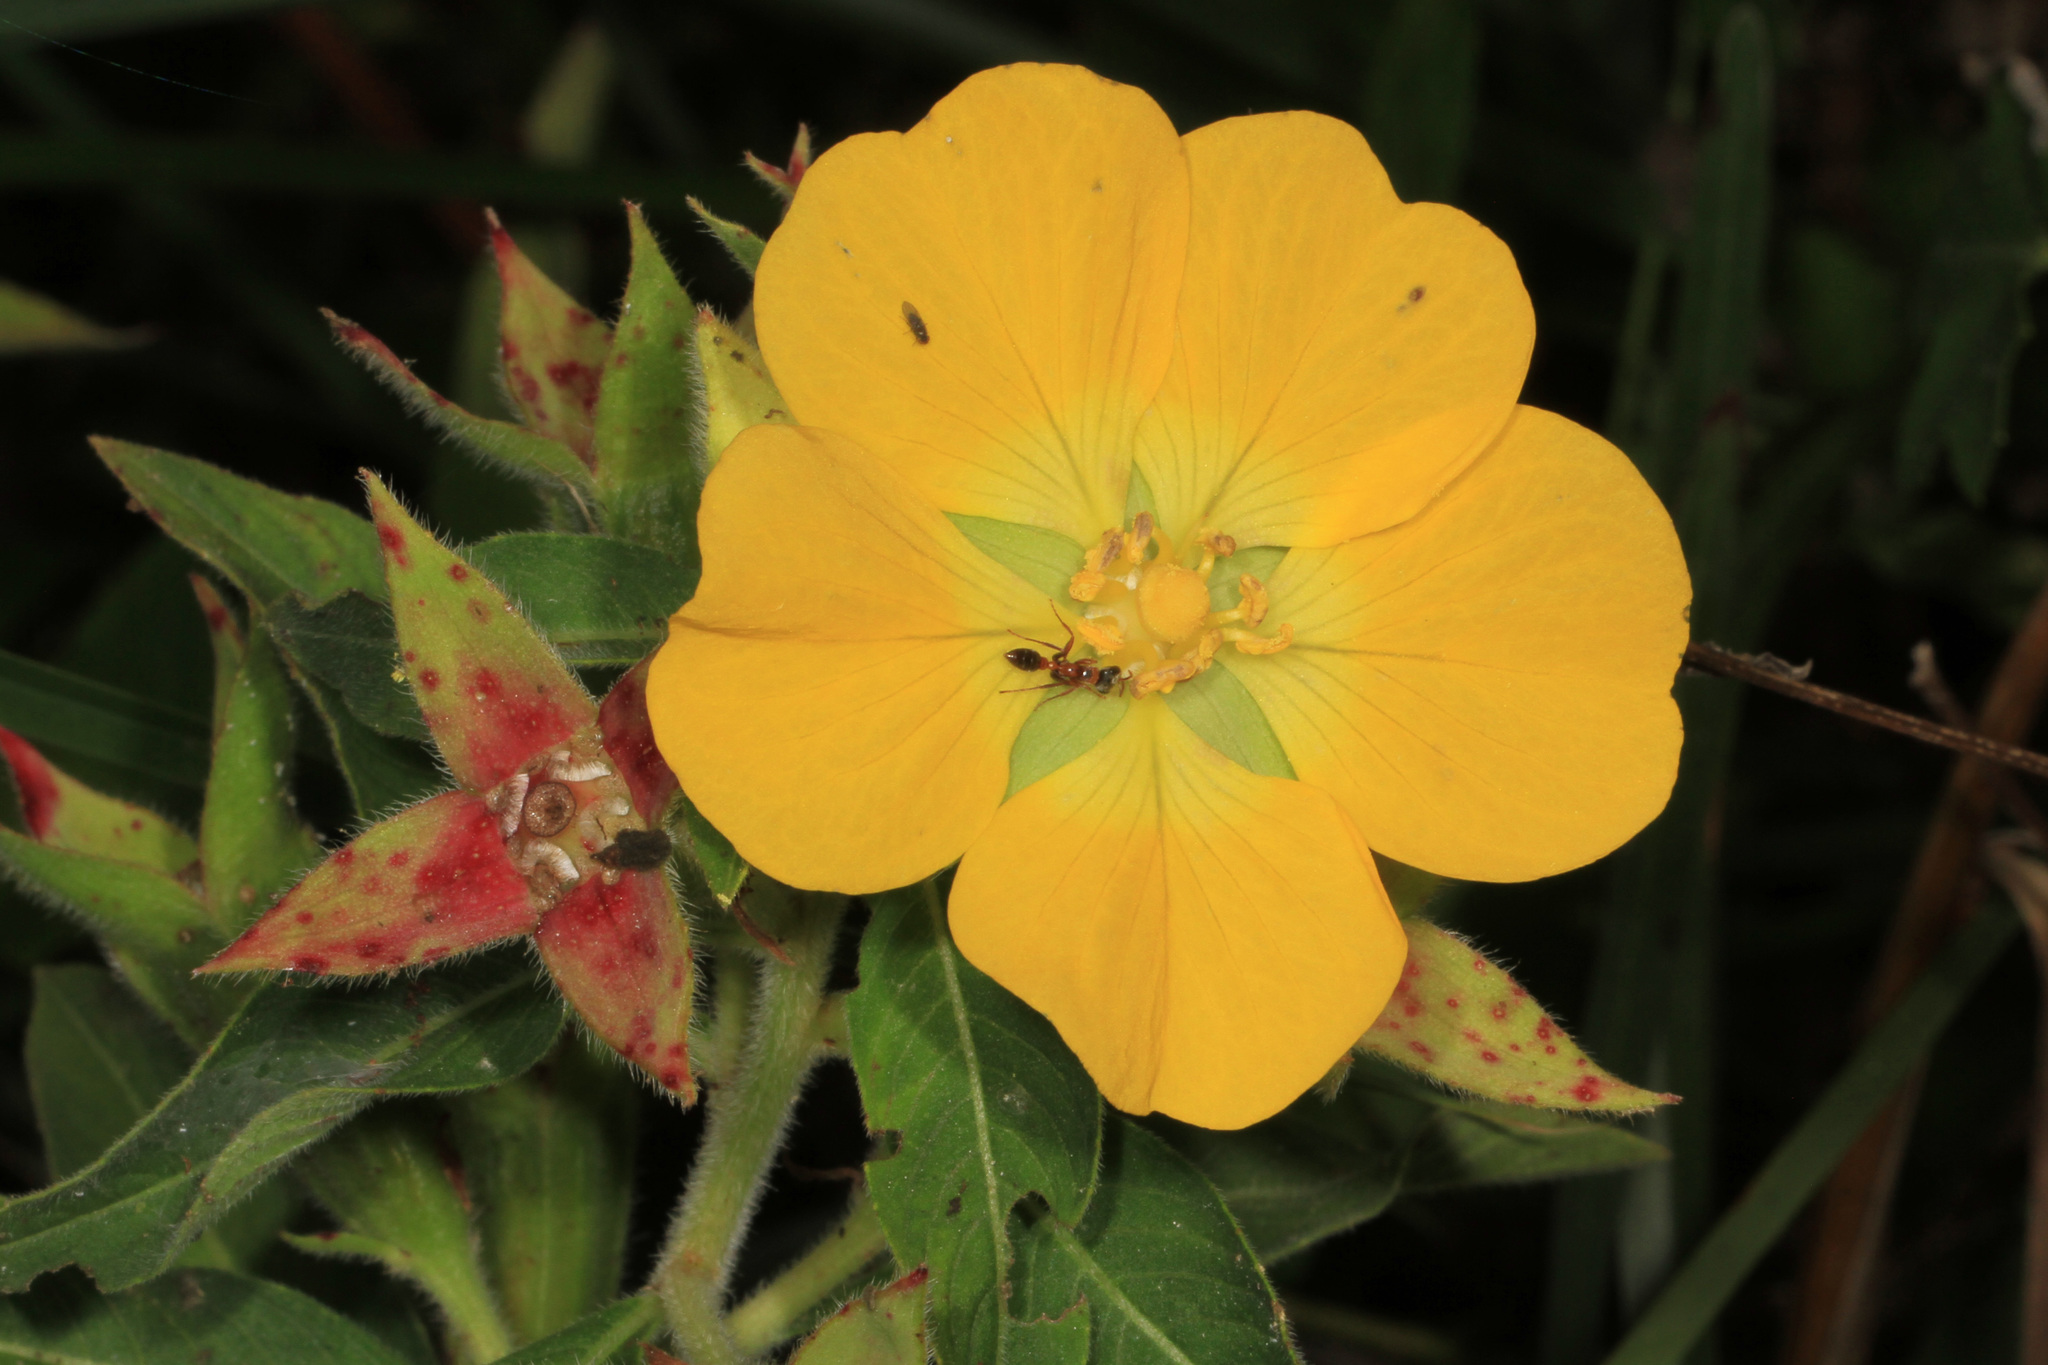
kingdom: Plantae
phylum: Tracheophyta
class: Magnoliopsida
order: Myrtales
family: Onagraceae
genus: Ludwigia
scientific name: Ludwigia peruviana
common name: Peruvian primrose-willow
